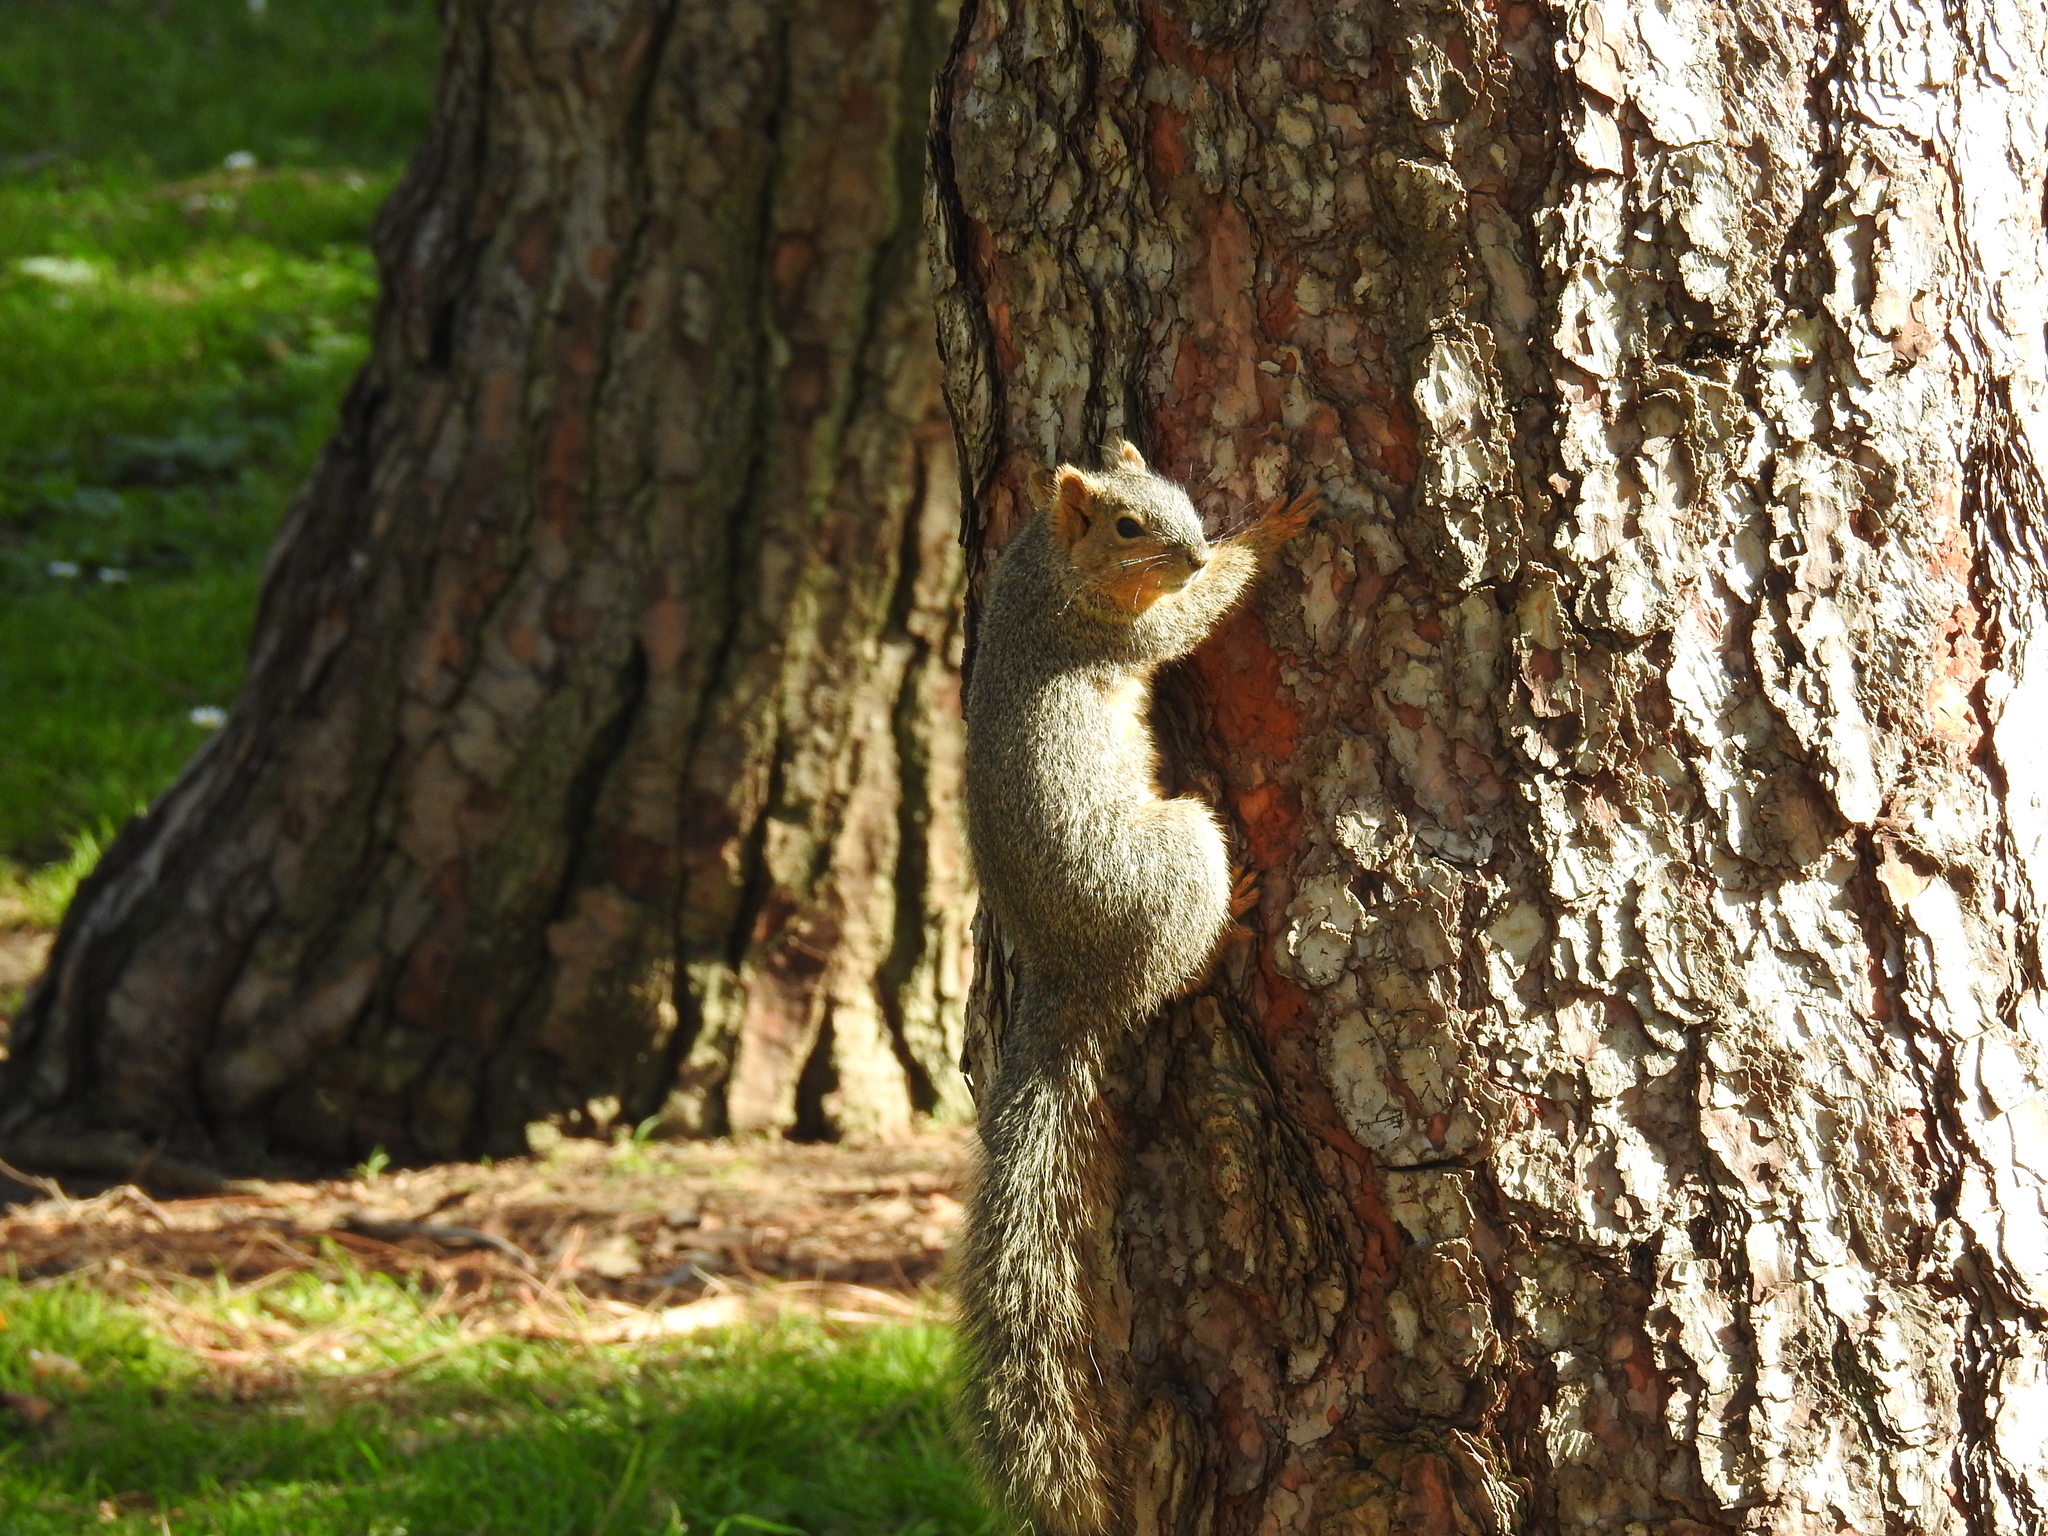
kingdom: Animalia
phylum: Chordata
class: Mammalia
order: Rodentia
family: Sciuridae
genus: Sciurus
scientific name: Sciurus niger
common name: Fox squirrel
